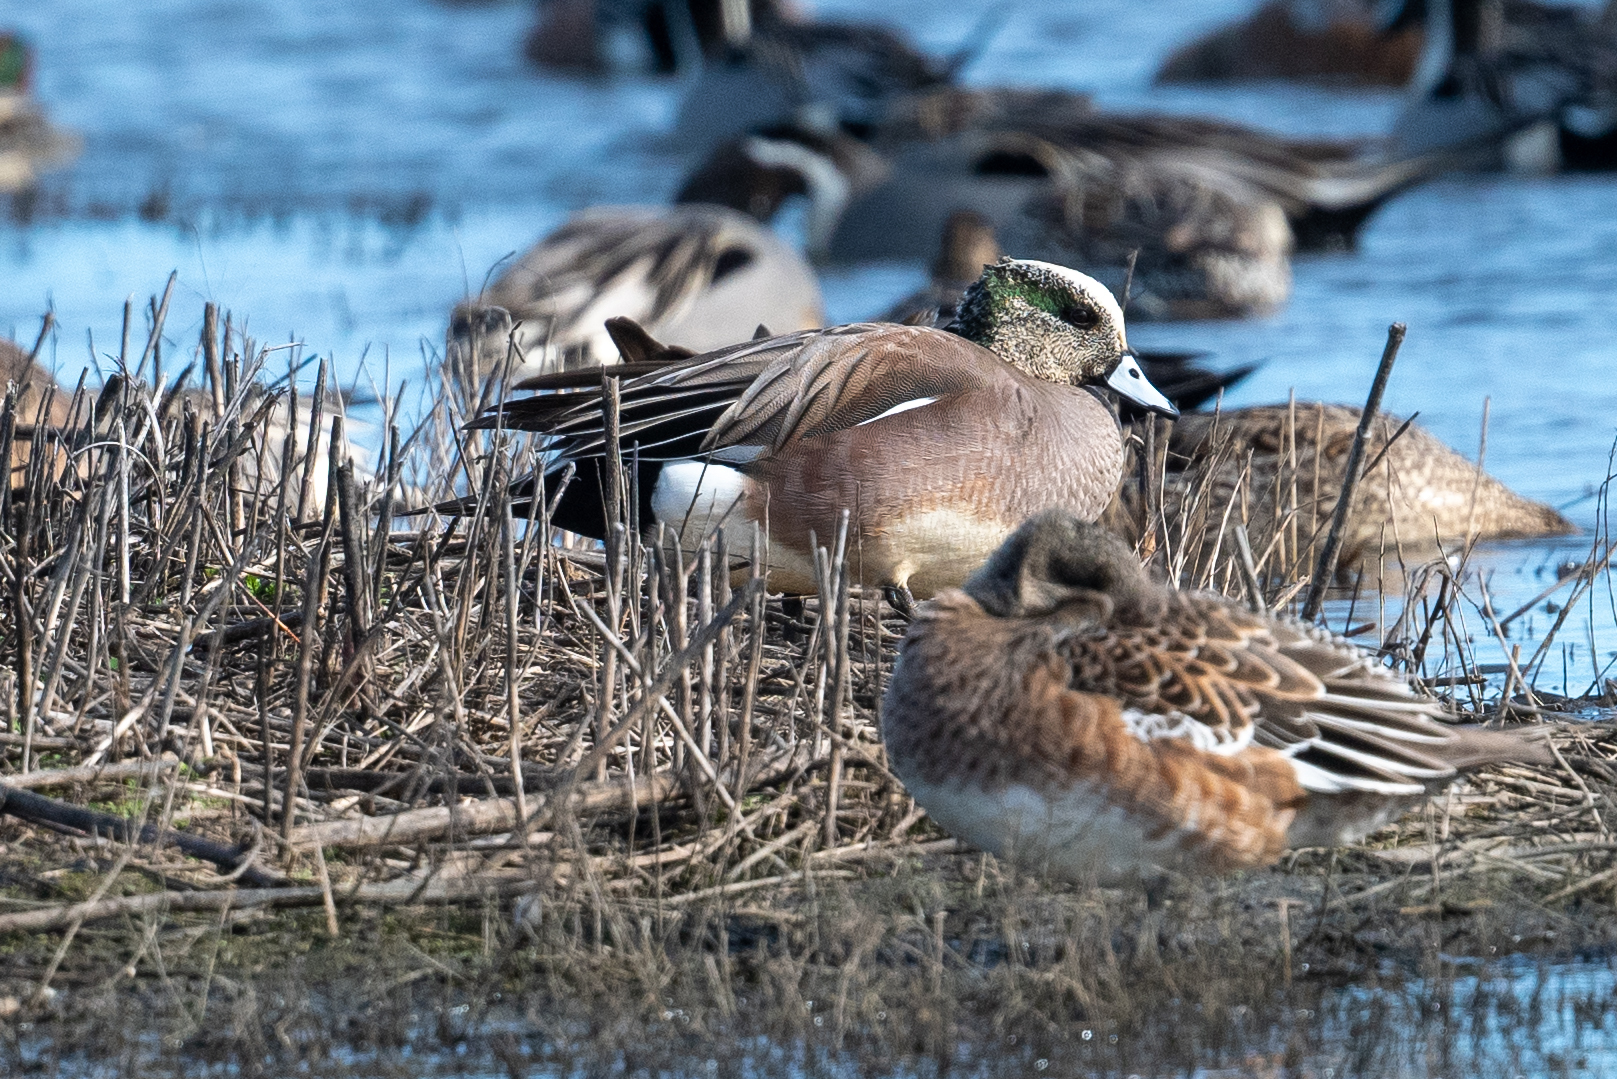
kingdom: Animalia
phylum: Chordata
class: Aves
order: Anseriformes
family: Anatidae
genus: Mareca
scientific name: Mareca americana
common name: American wigeon
